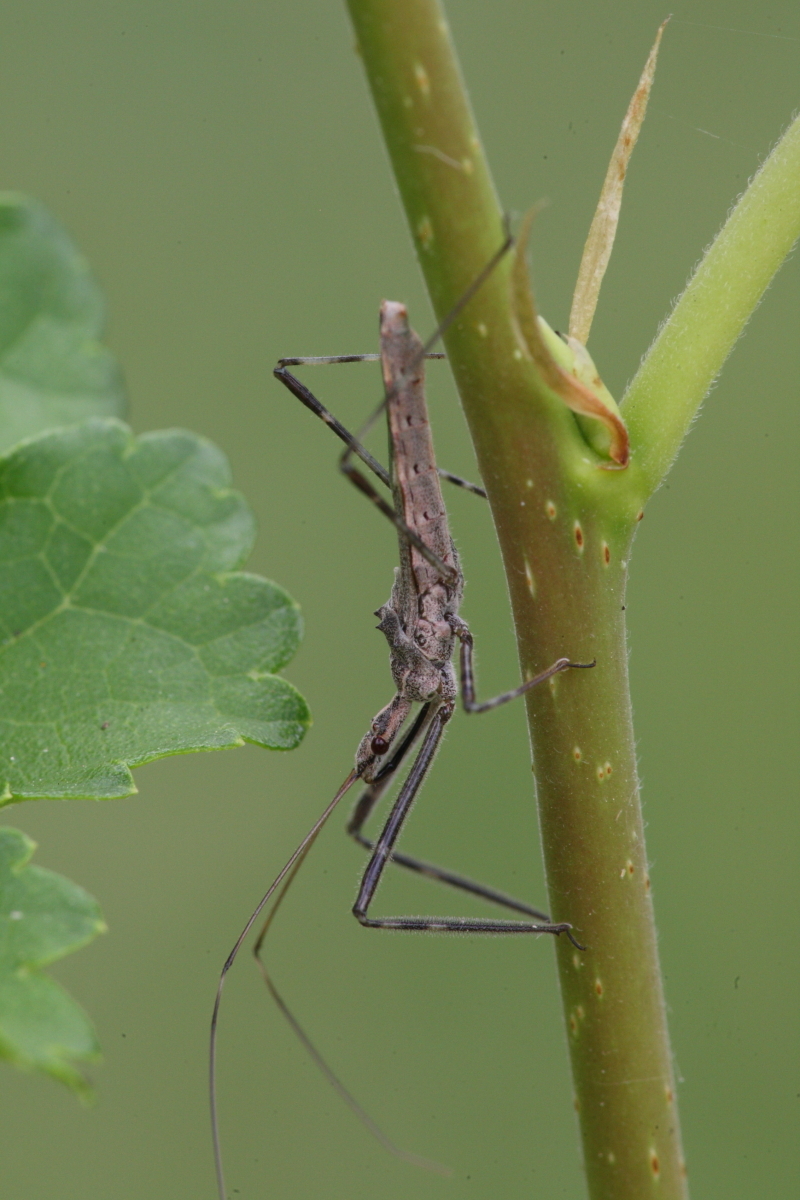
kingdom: Animalia
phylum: Arthropoda
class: Insecta
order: Hemiptera
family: Reduviidae
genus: Zelus
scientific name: Zelus tetracanthus
